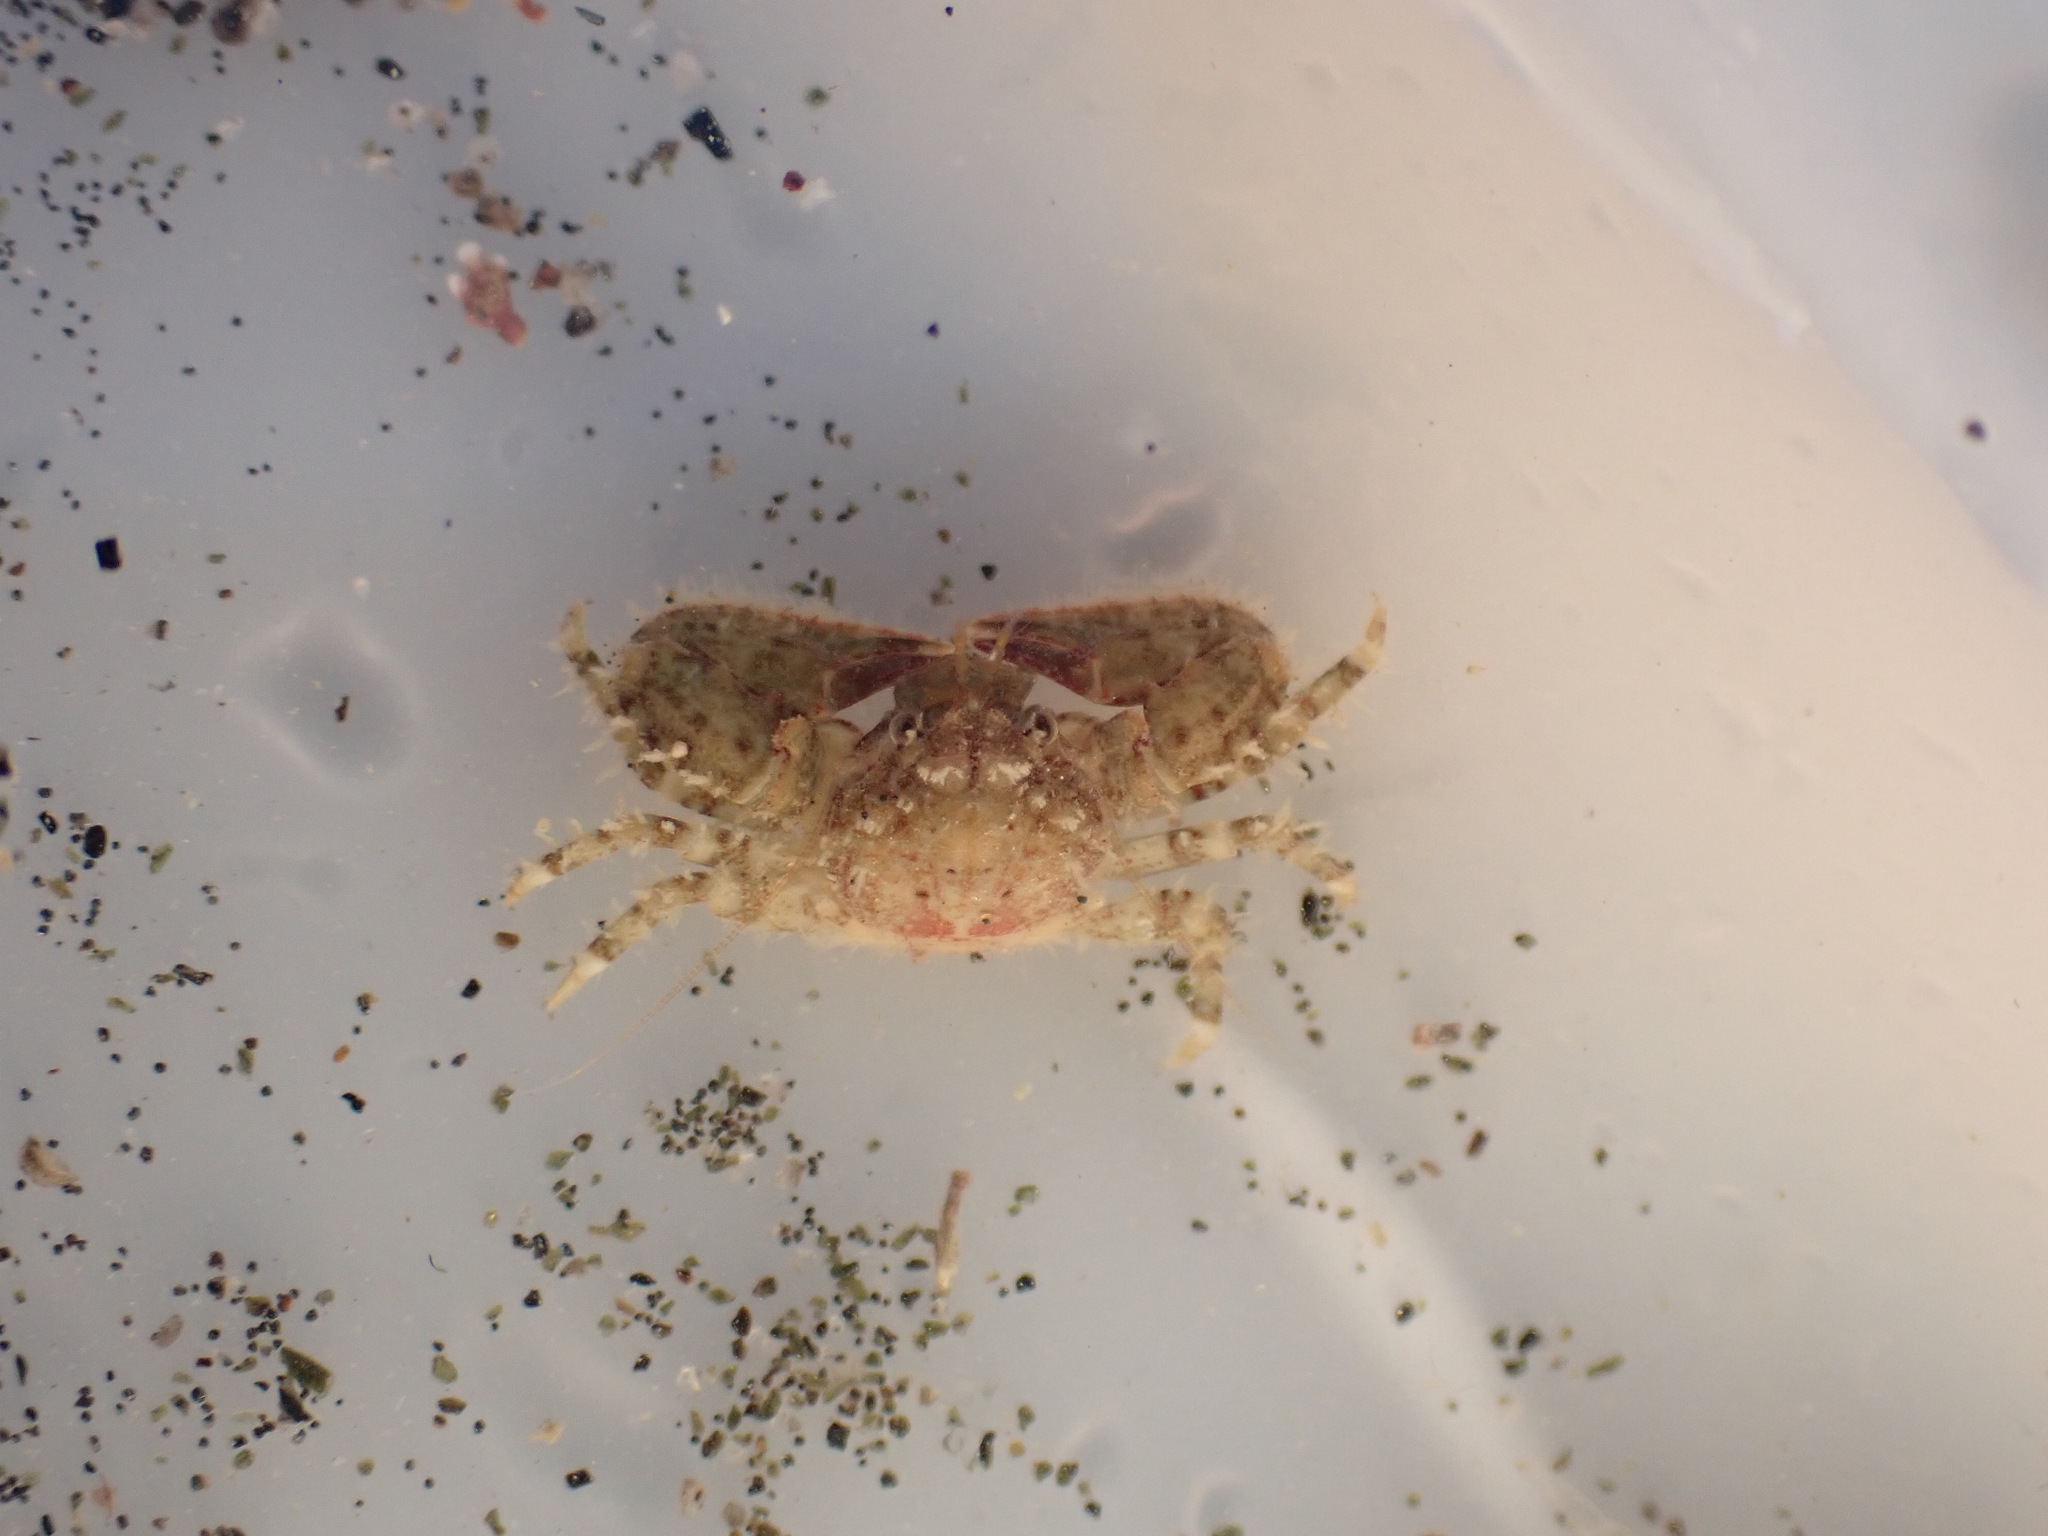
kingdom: Animalia
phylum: Arthropoda
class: Malacostraca
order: Decapoda
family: Porcellanidae
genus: Petrolisthes
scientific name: Petrolisthes novaezelandiae
